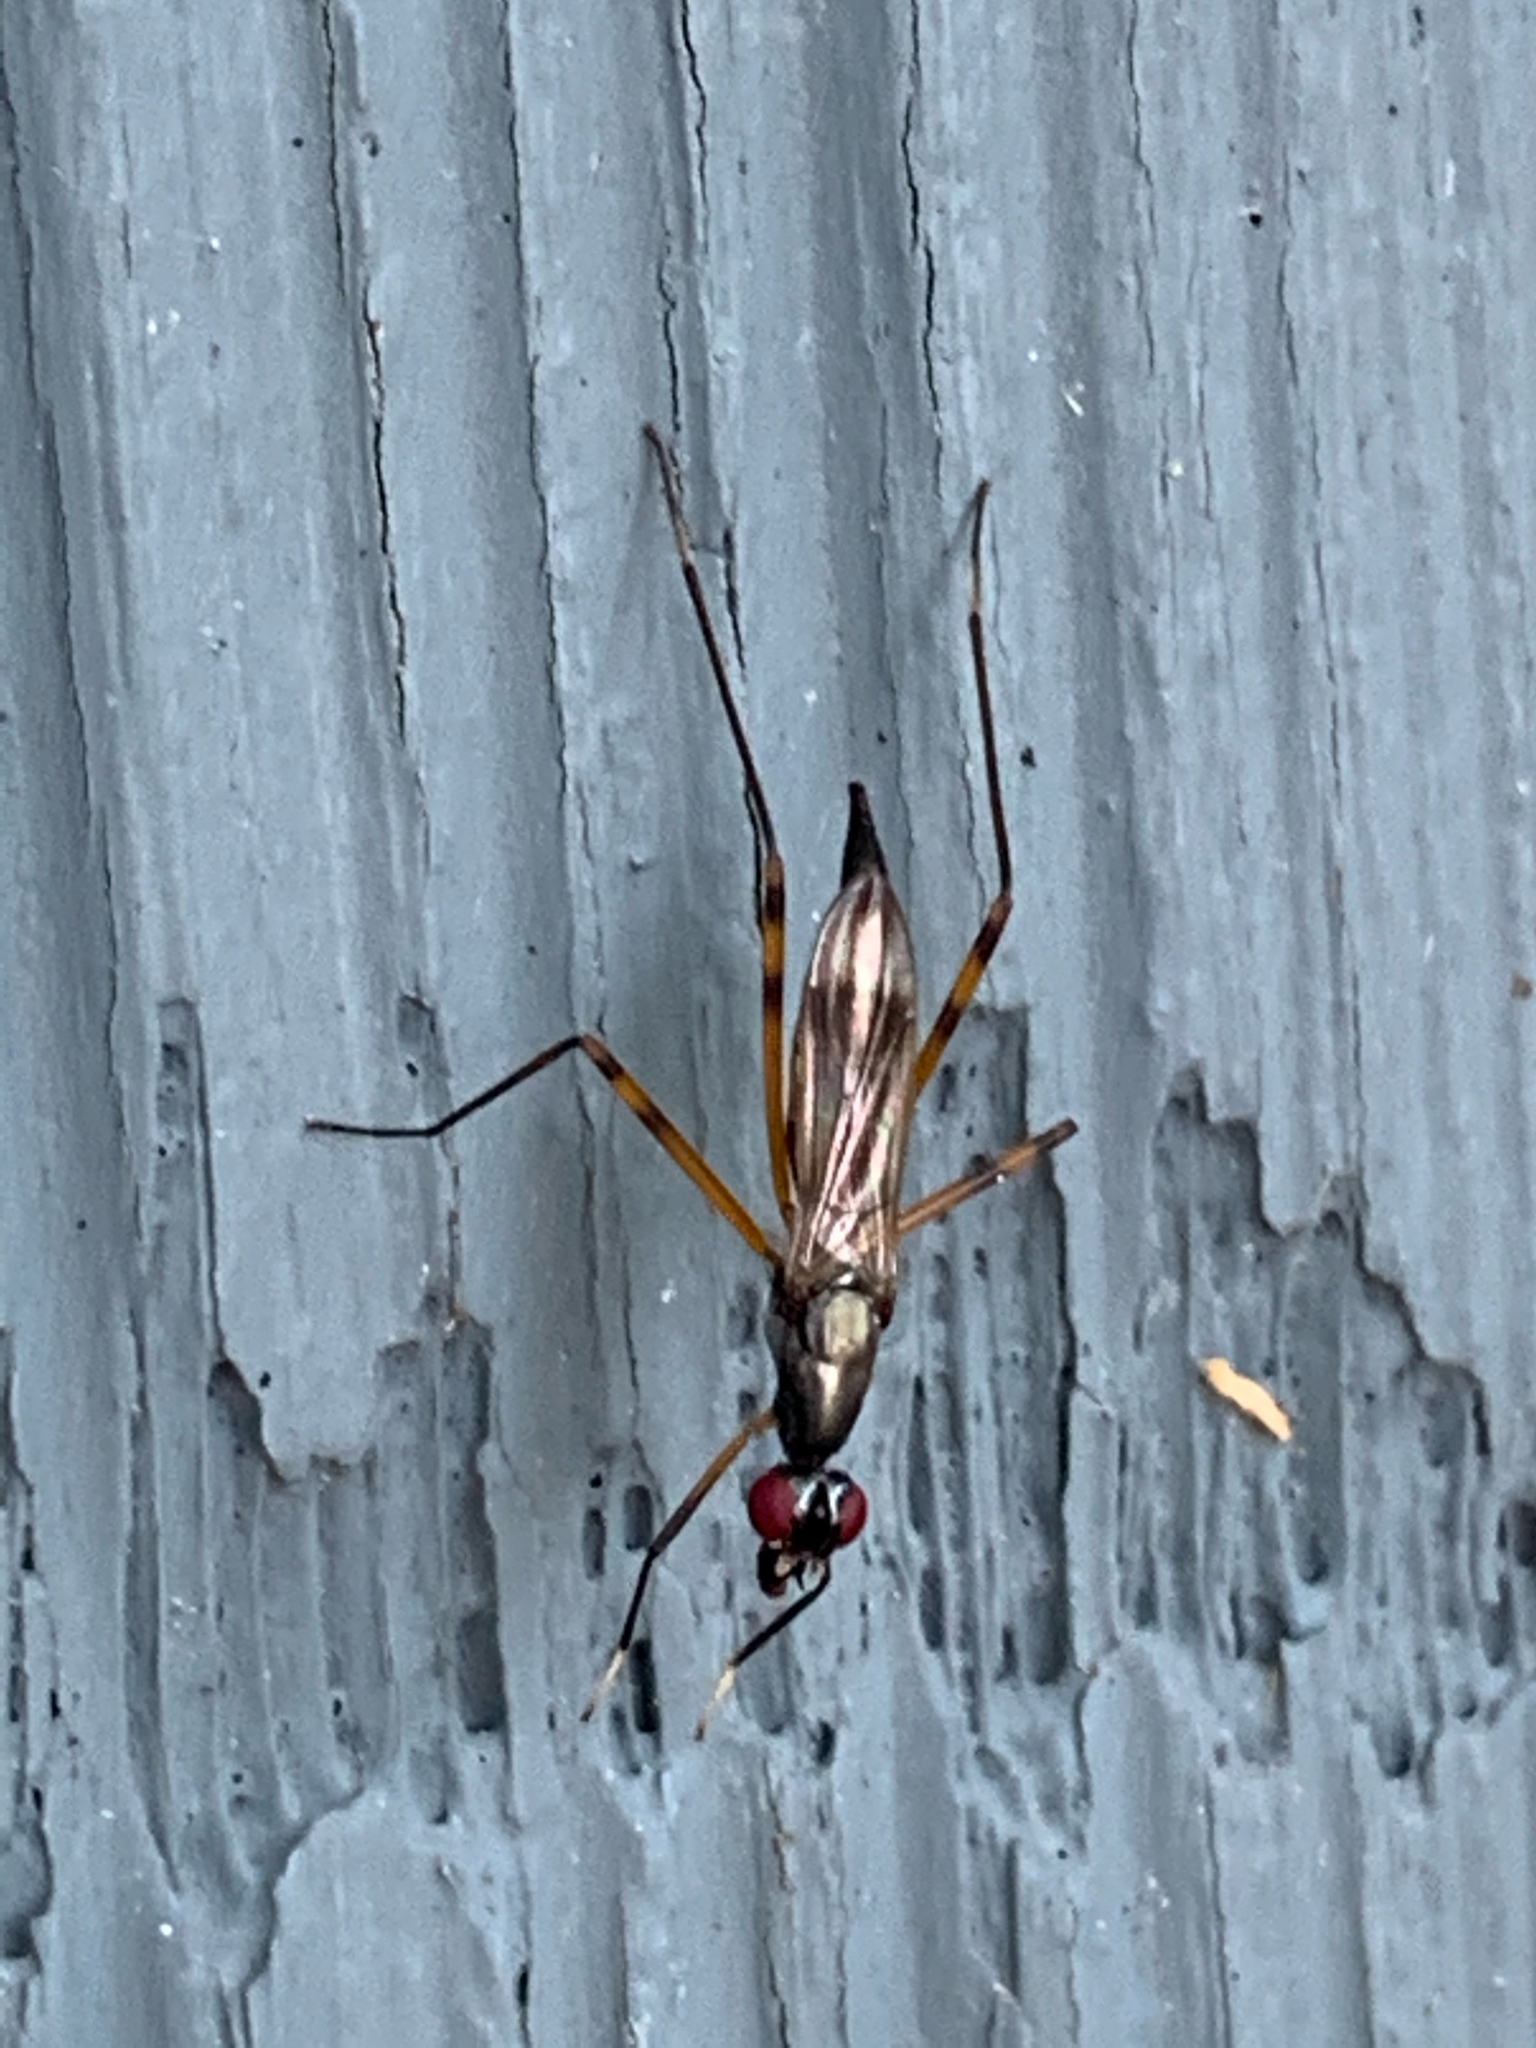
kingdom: Animalia
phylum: Arthropoda
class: Insecta
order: Diptera
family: Micropezidae
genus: Rainieria
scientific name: Rainieria antennaepes
